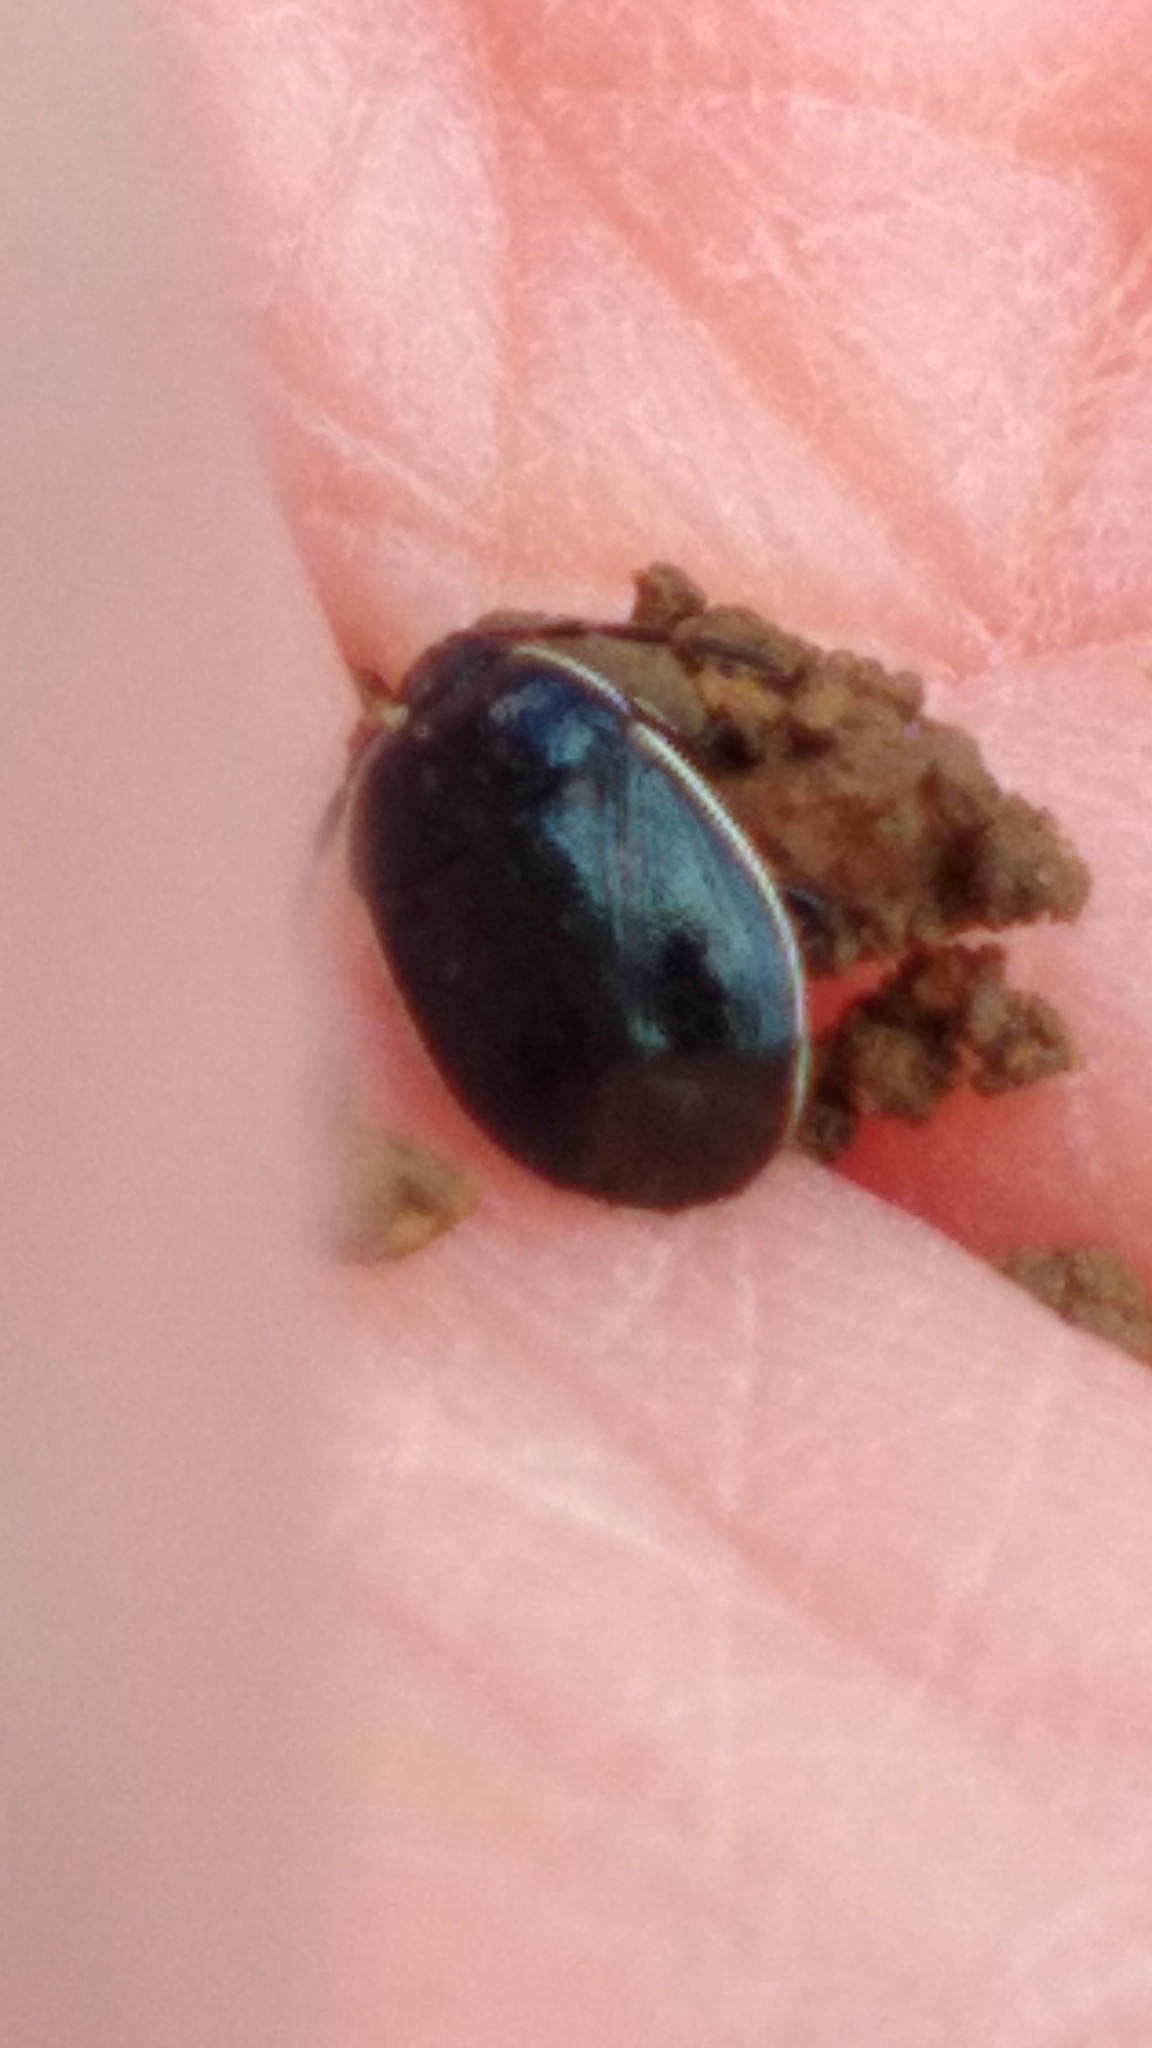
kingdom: Animalia
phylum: Arthropoda
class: Insecta
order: Hemiptera
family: Cydnidae
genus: Sehirus
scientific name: Sehirus cinctus
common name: White-margined burrower bug
